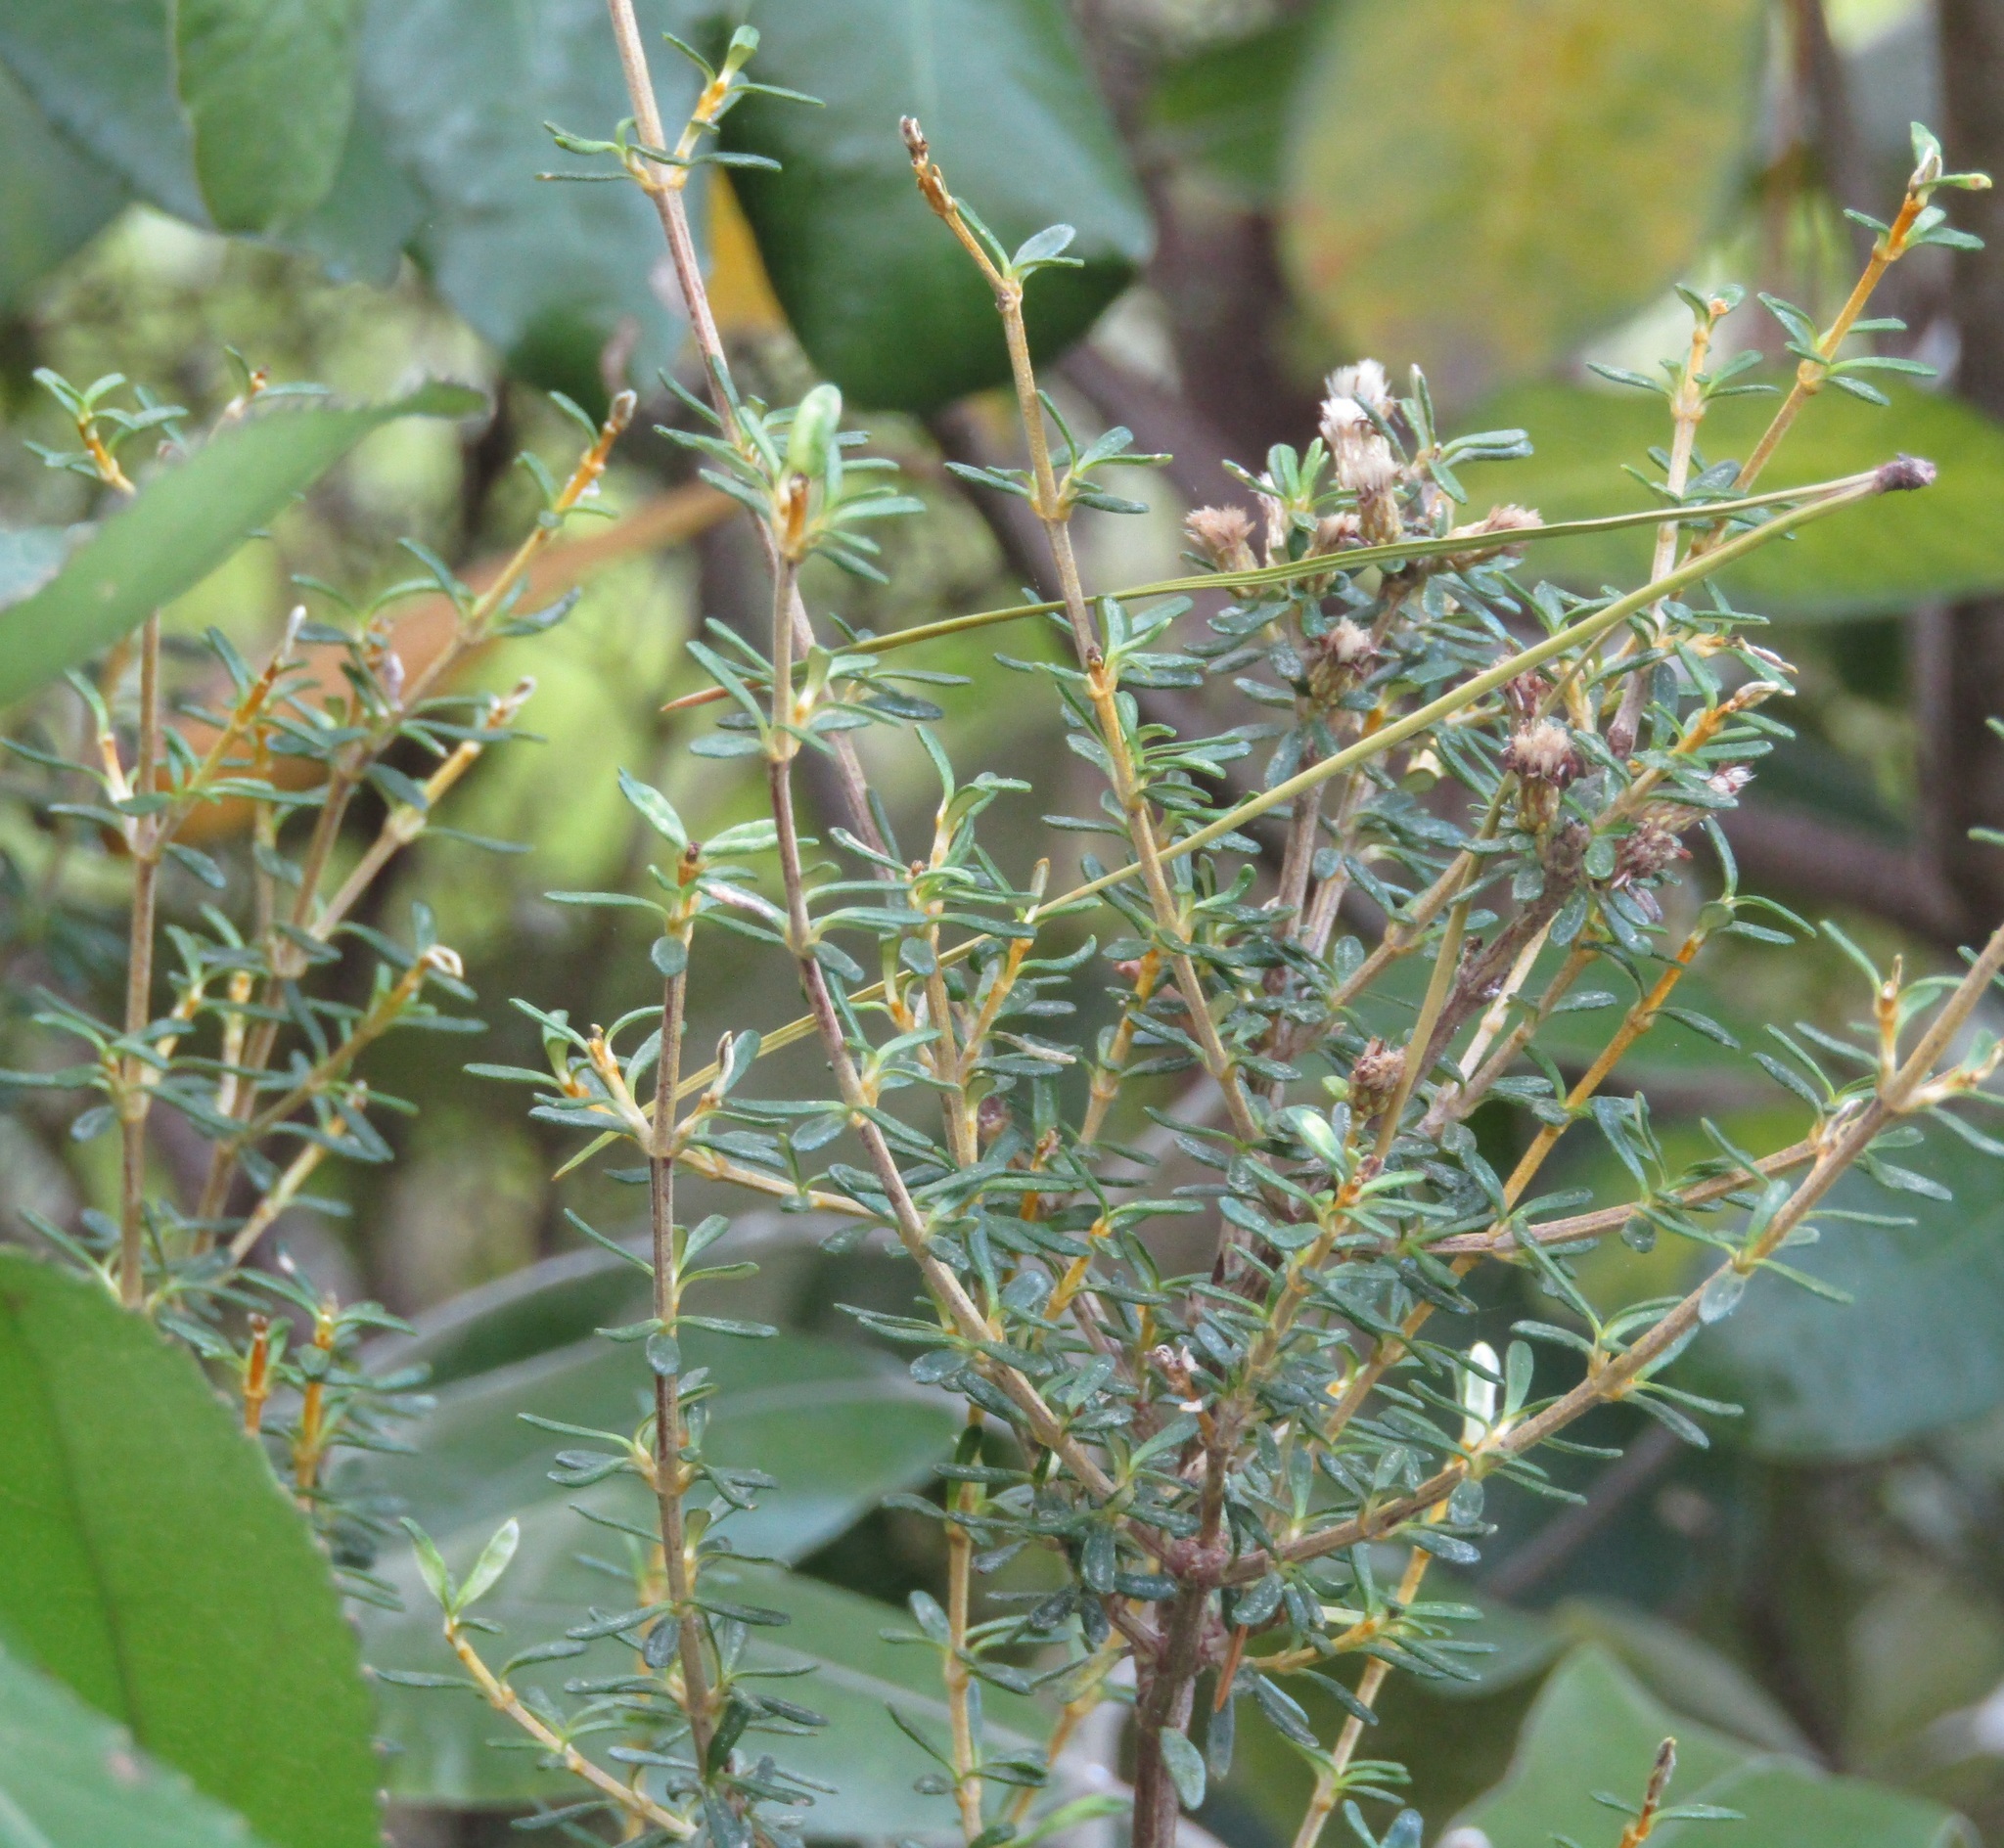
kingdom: Plantae
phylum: Tracheophyta
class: Magnoliopsida
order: Asterales
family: Asteraceae
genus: Olearia
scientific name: Olearia solandri
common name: Coastal daisybush
